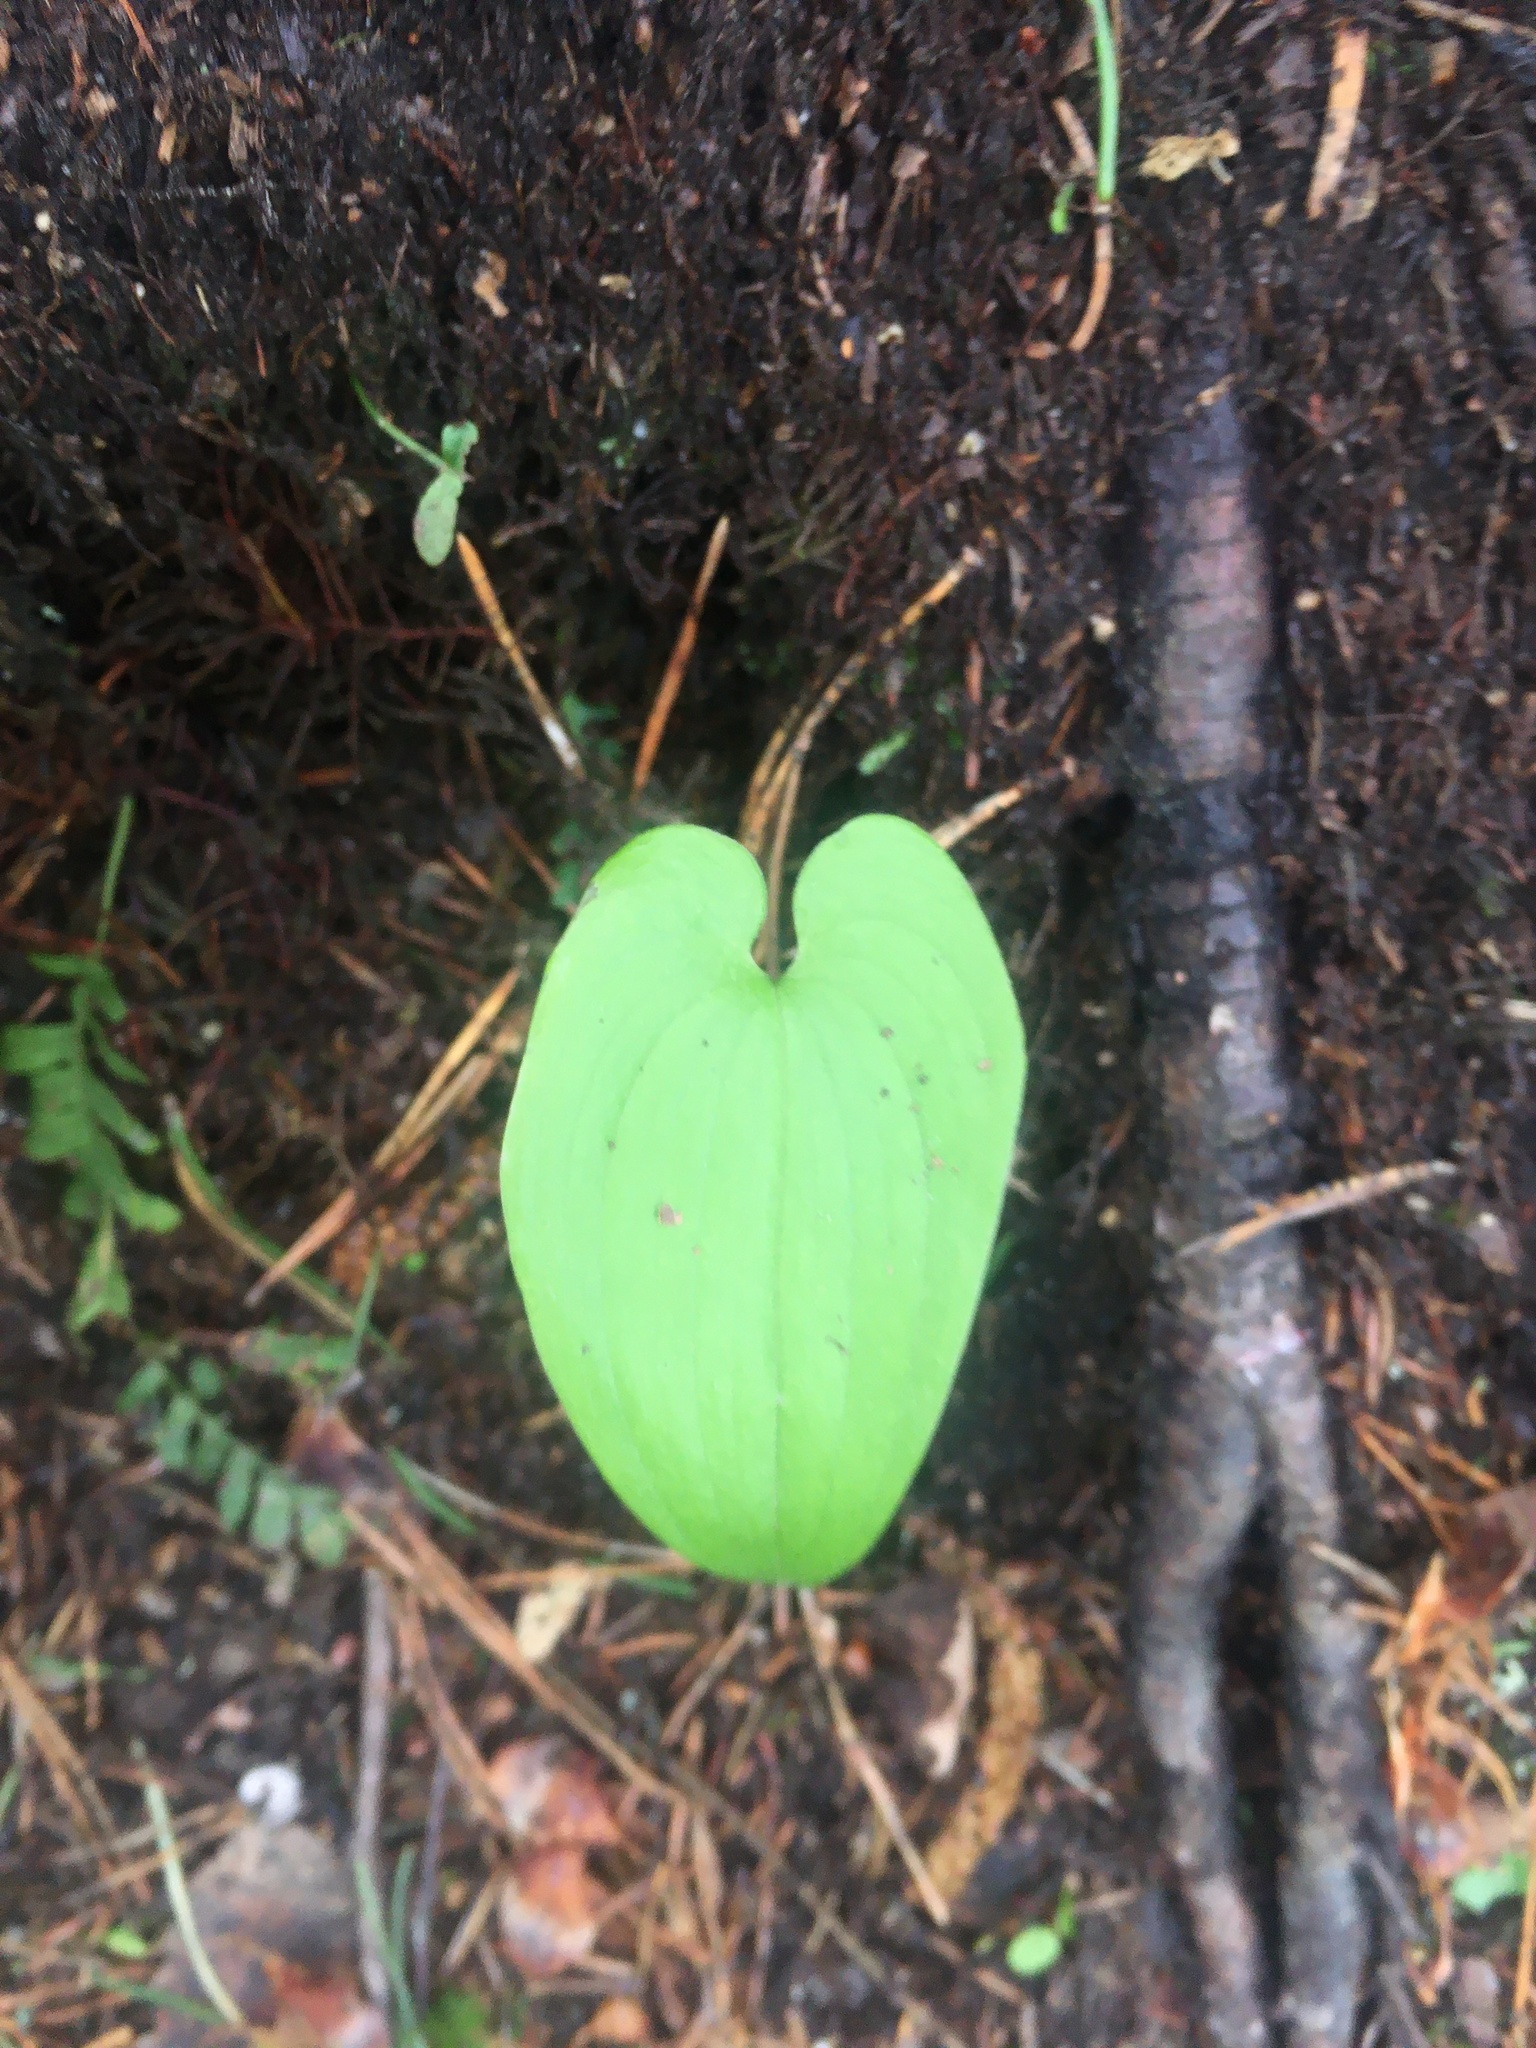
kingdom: Plantae
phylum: Tracheophyta
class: Liliopsida
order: Asparagales
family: Asparagaceae
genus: Maianthemum
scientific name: Maianthemum bifolium
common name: May lily
